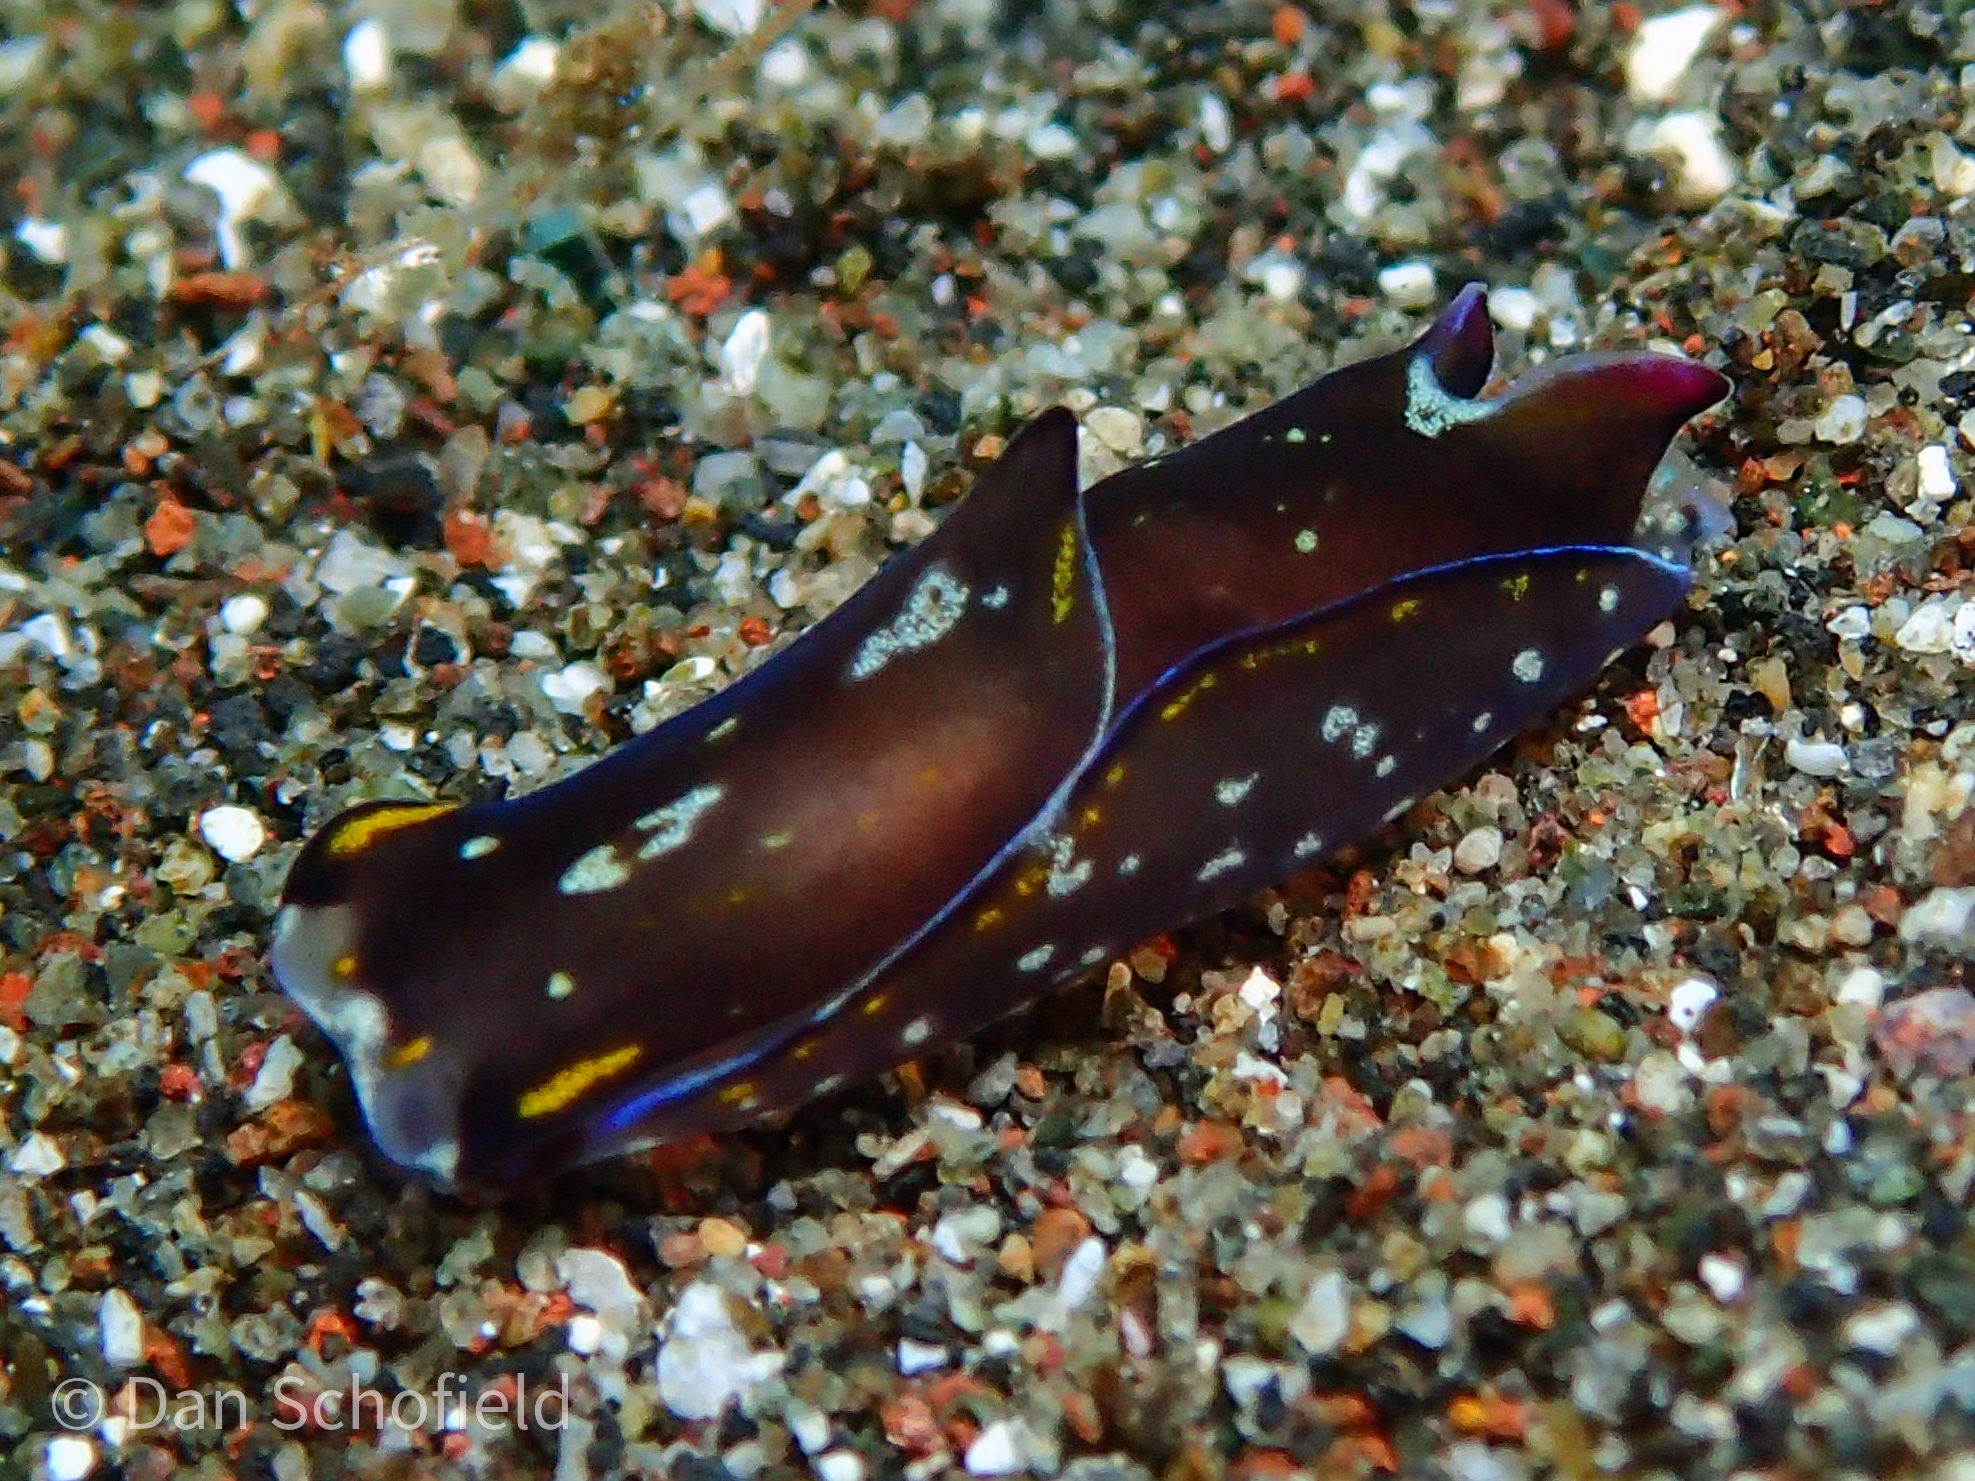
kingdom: Animalia
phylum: Mollusca
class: Gastropoda
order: Cephalaspidea
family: Aglajidae
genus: Philinopsis
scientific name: Philinopsis speciosa
